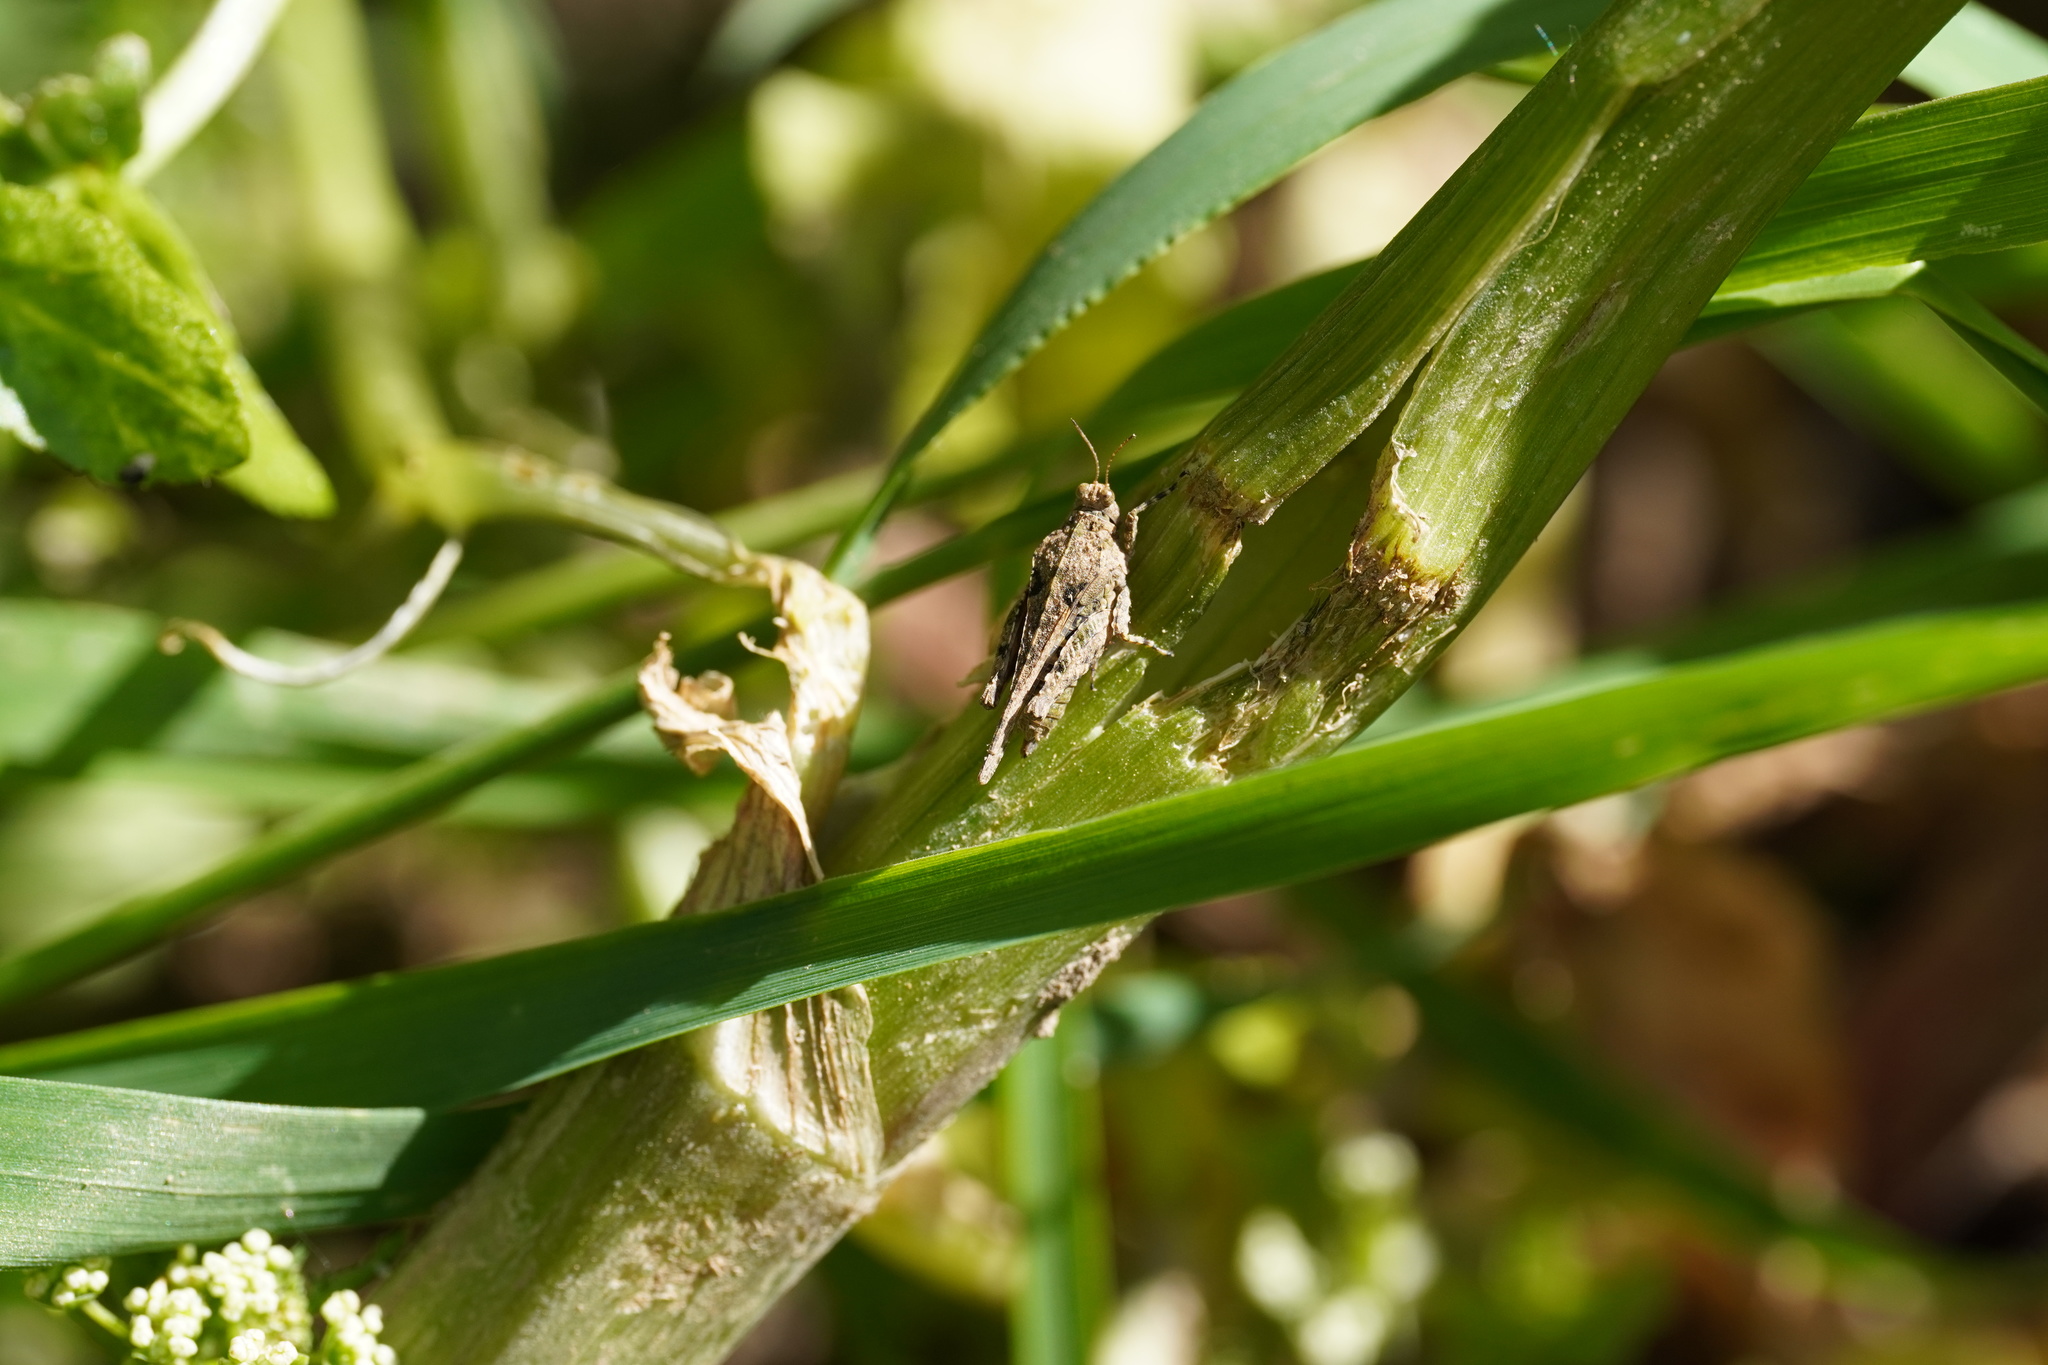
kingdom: Animalia
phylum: Arthropoda
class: Insecta
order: Orthoptera
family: Tetrigidae
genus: Paratettix
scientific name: Paratettix meridionalis
